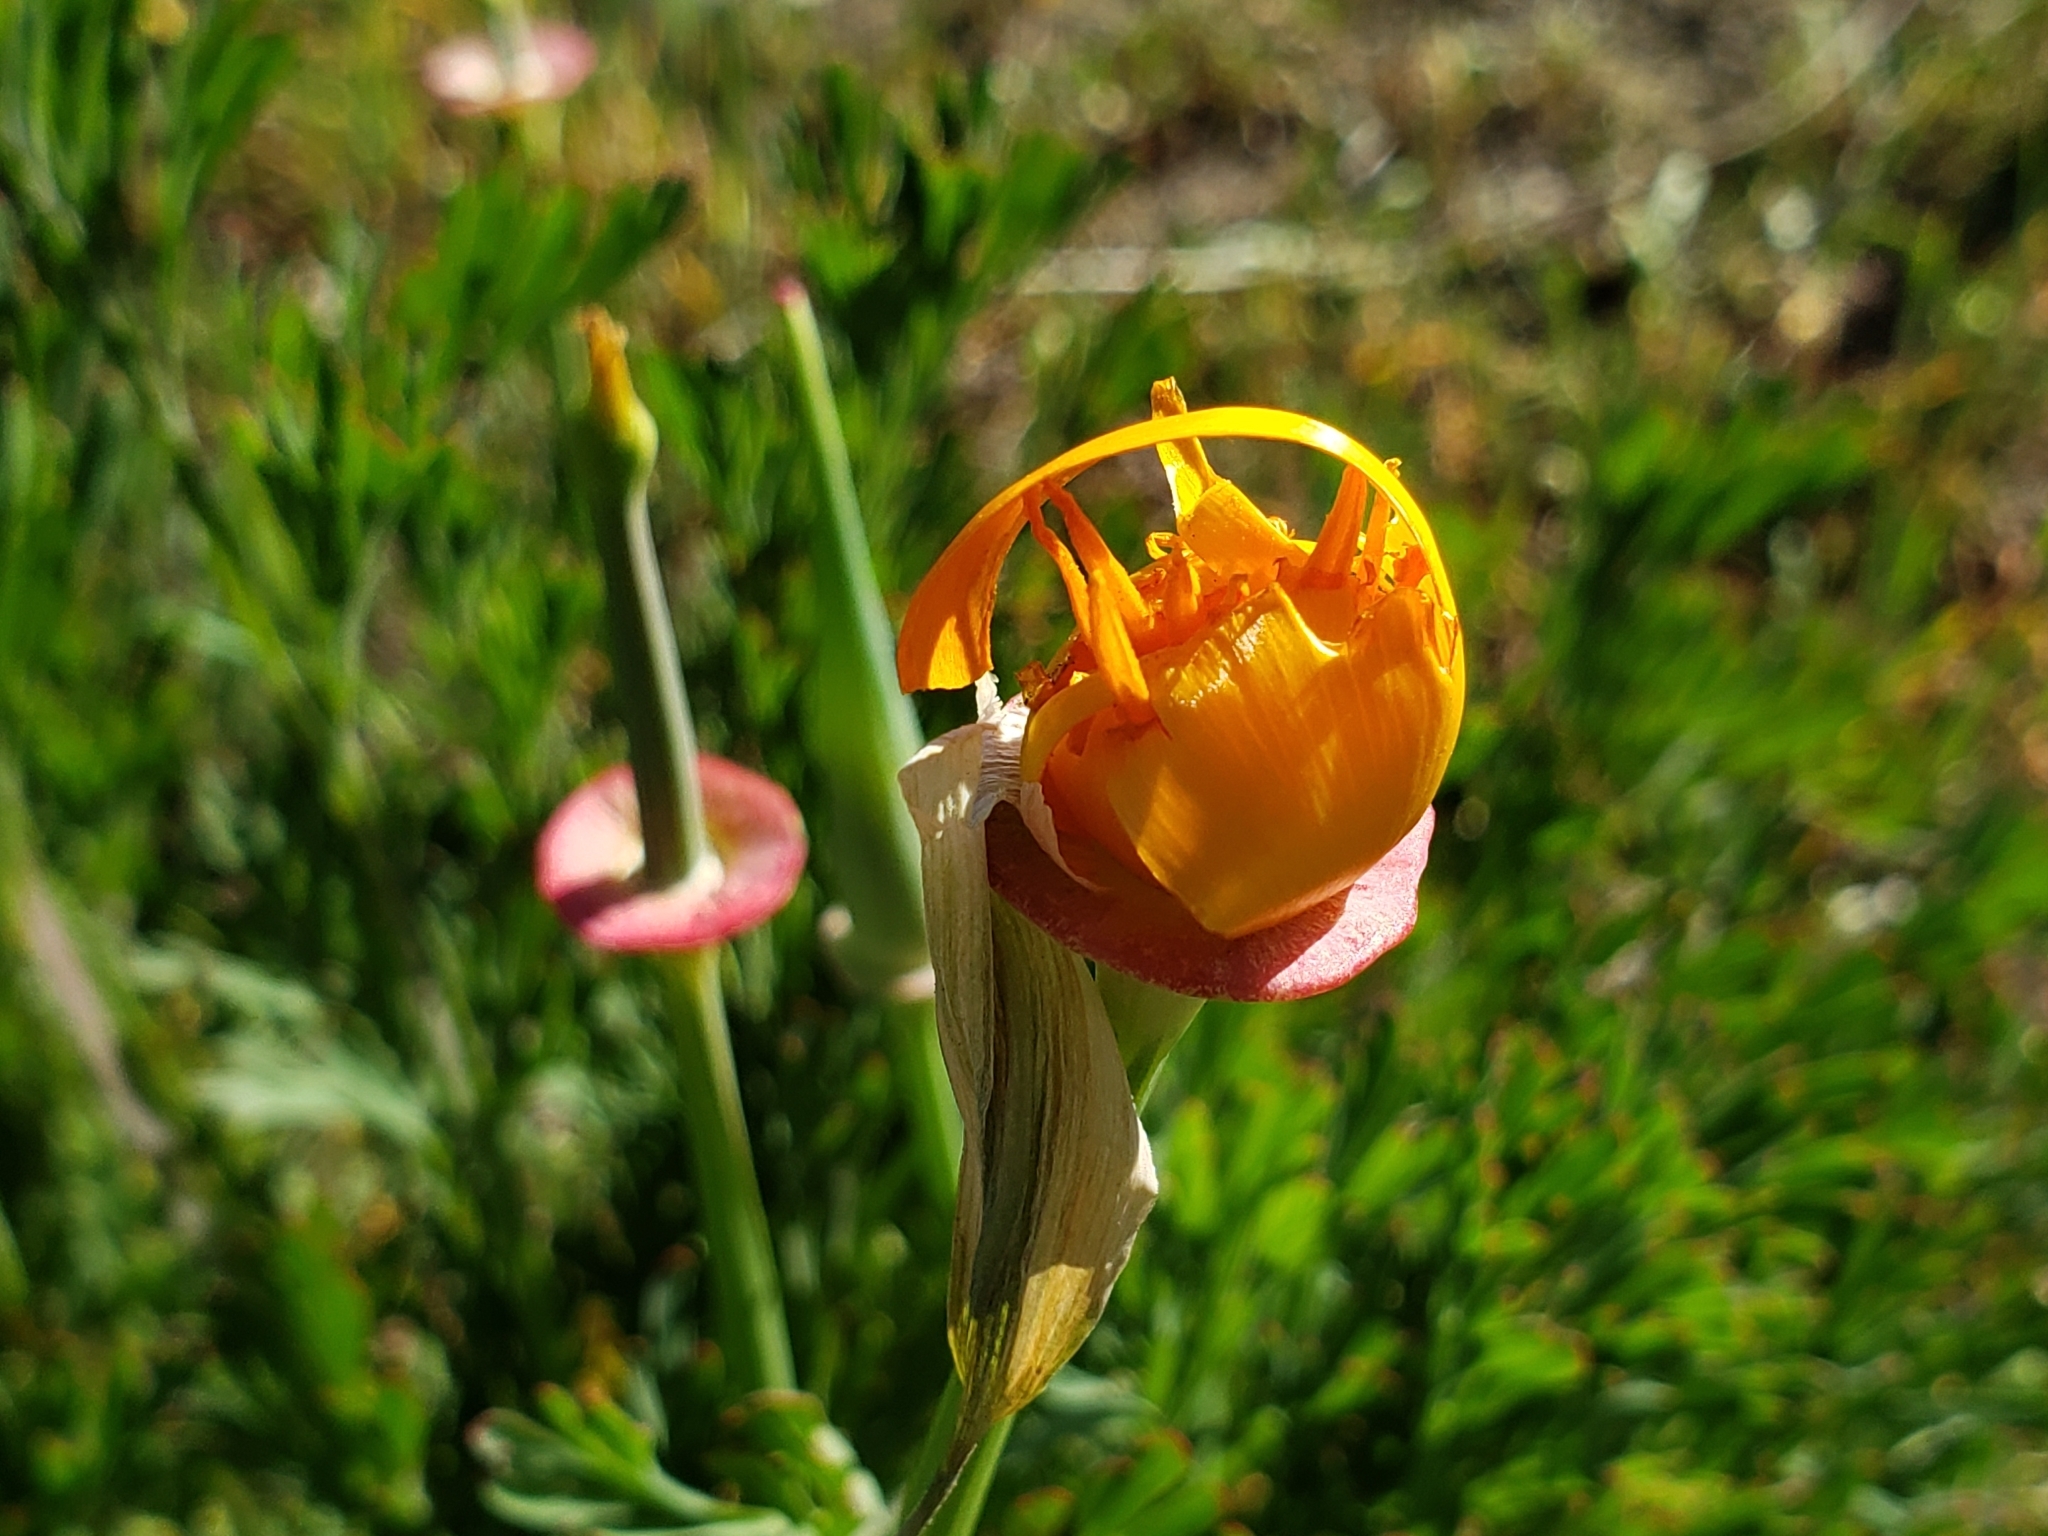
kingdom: Plantae
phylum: Tracheophyta
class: Magnoliopsida
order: Ranunculales
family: Papaveraceae
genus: Eschscholzia
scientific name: Eschscholzia californica
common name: California poppy
